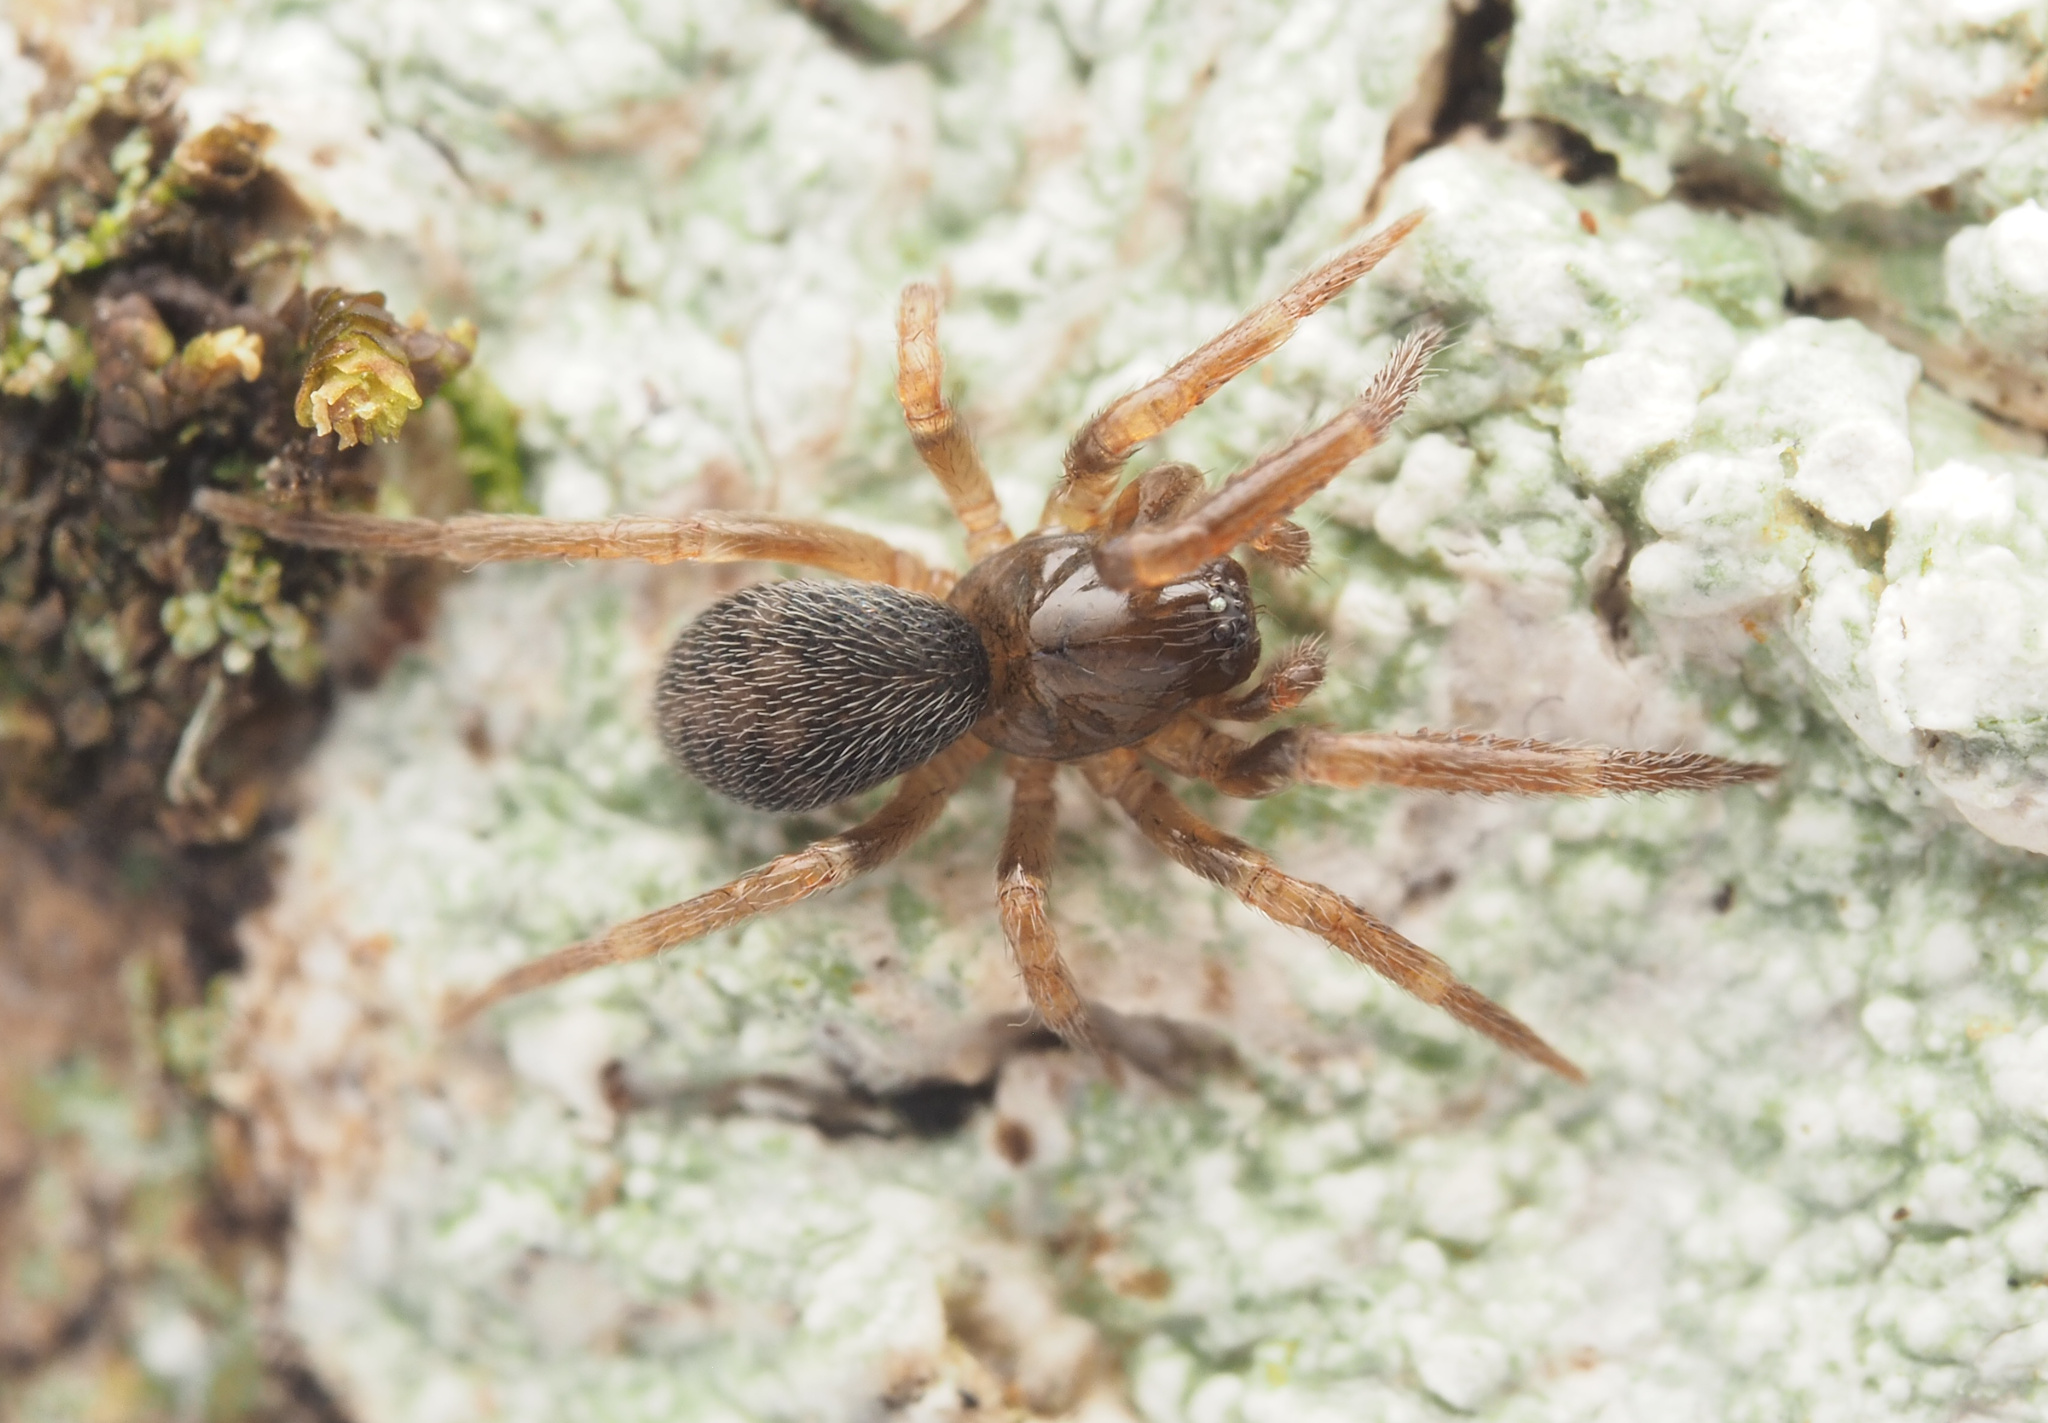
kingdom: Animalia
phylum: Arthropoda
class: Arachnida
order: Araneae
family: Amaurobiidae
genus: Dardurus
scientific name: Dardurus
